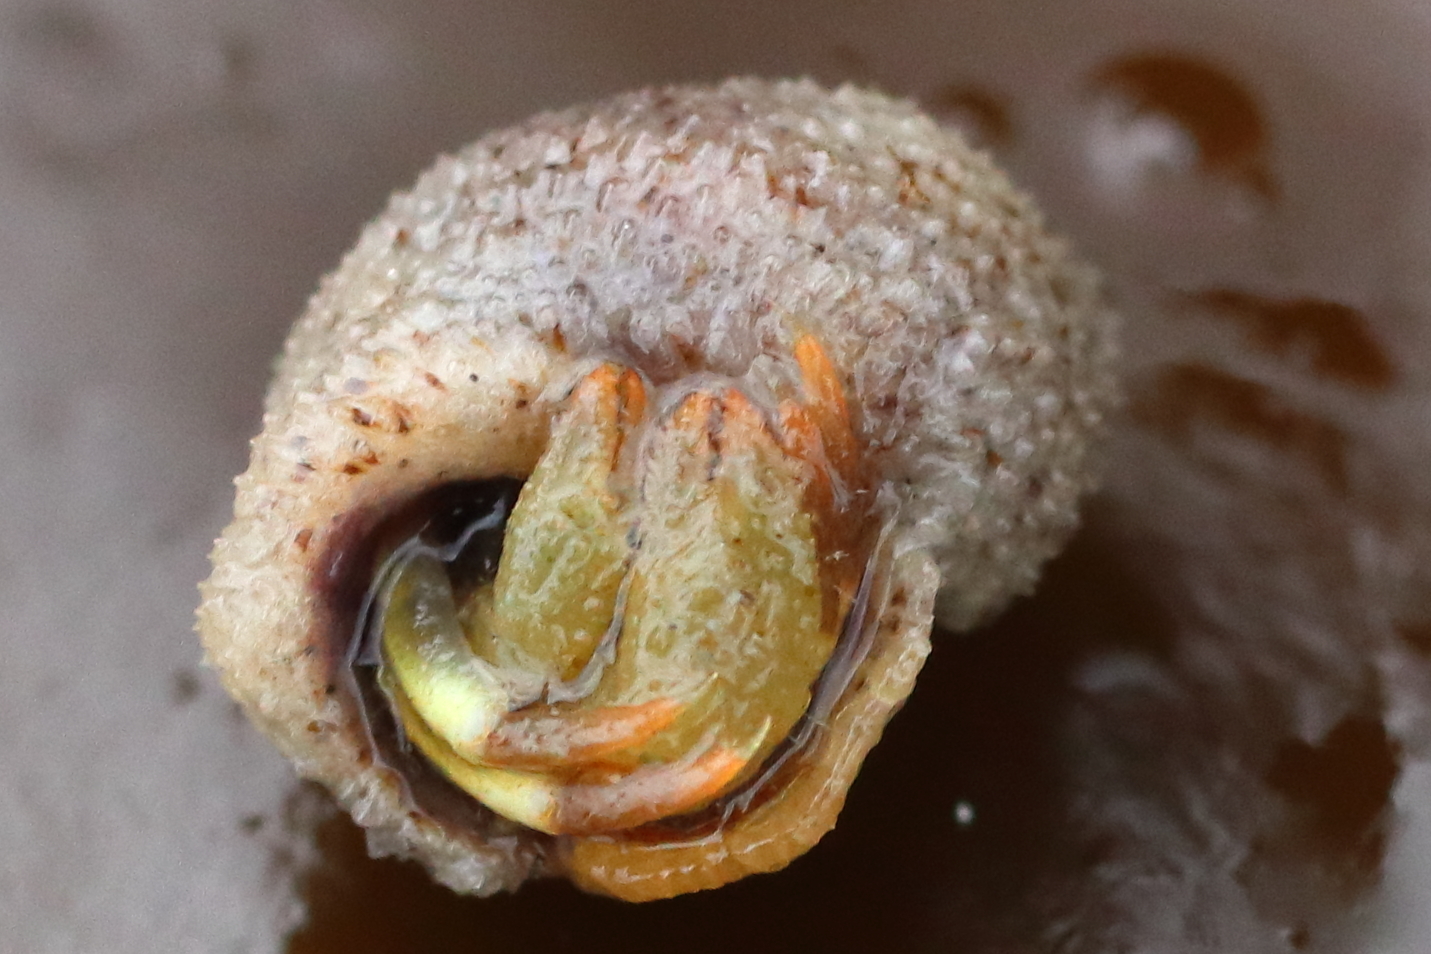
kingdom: Animalia
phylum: Arthropoda
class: Malacostraca
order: Decapoda
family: Paguridae
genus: Pagurus
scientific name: Pagurus caurinus
